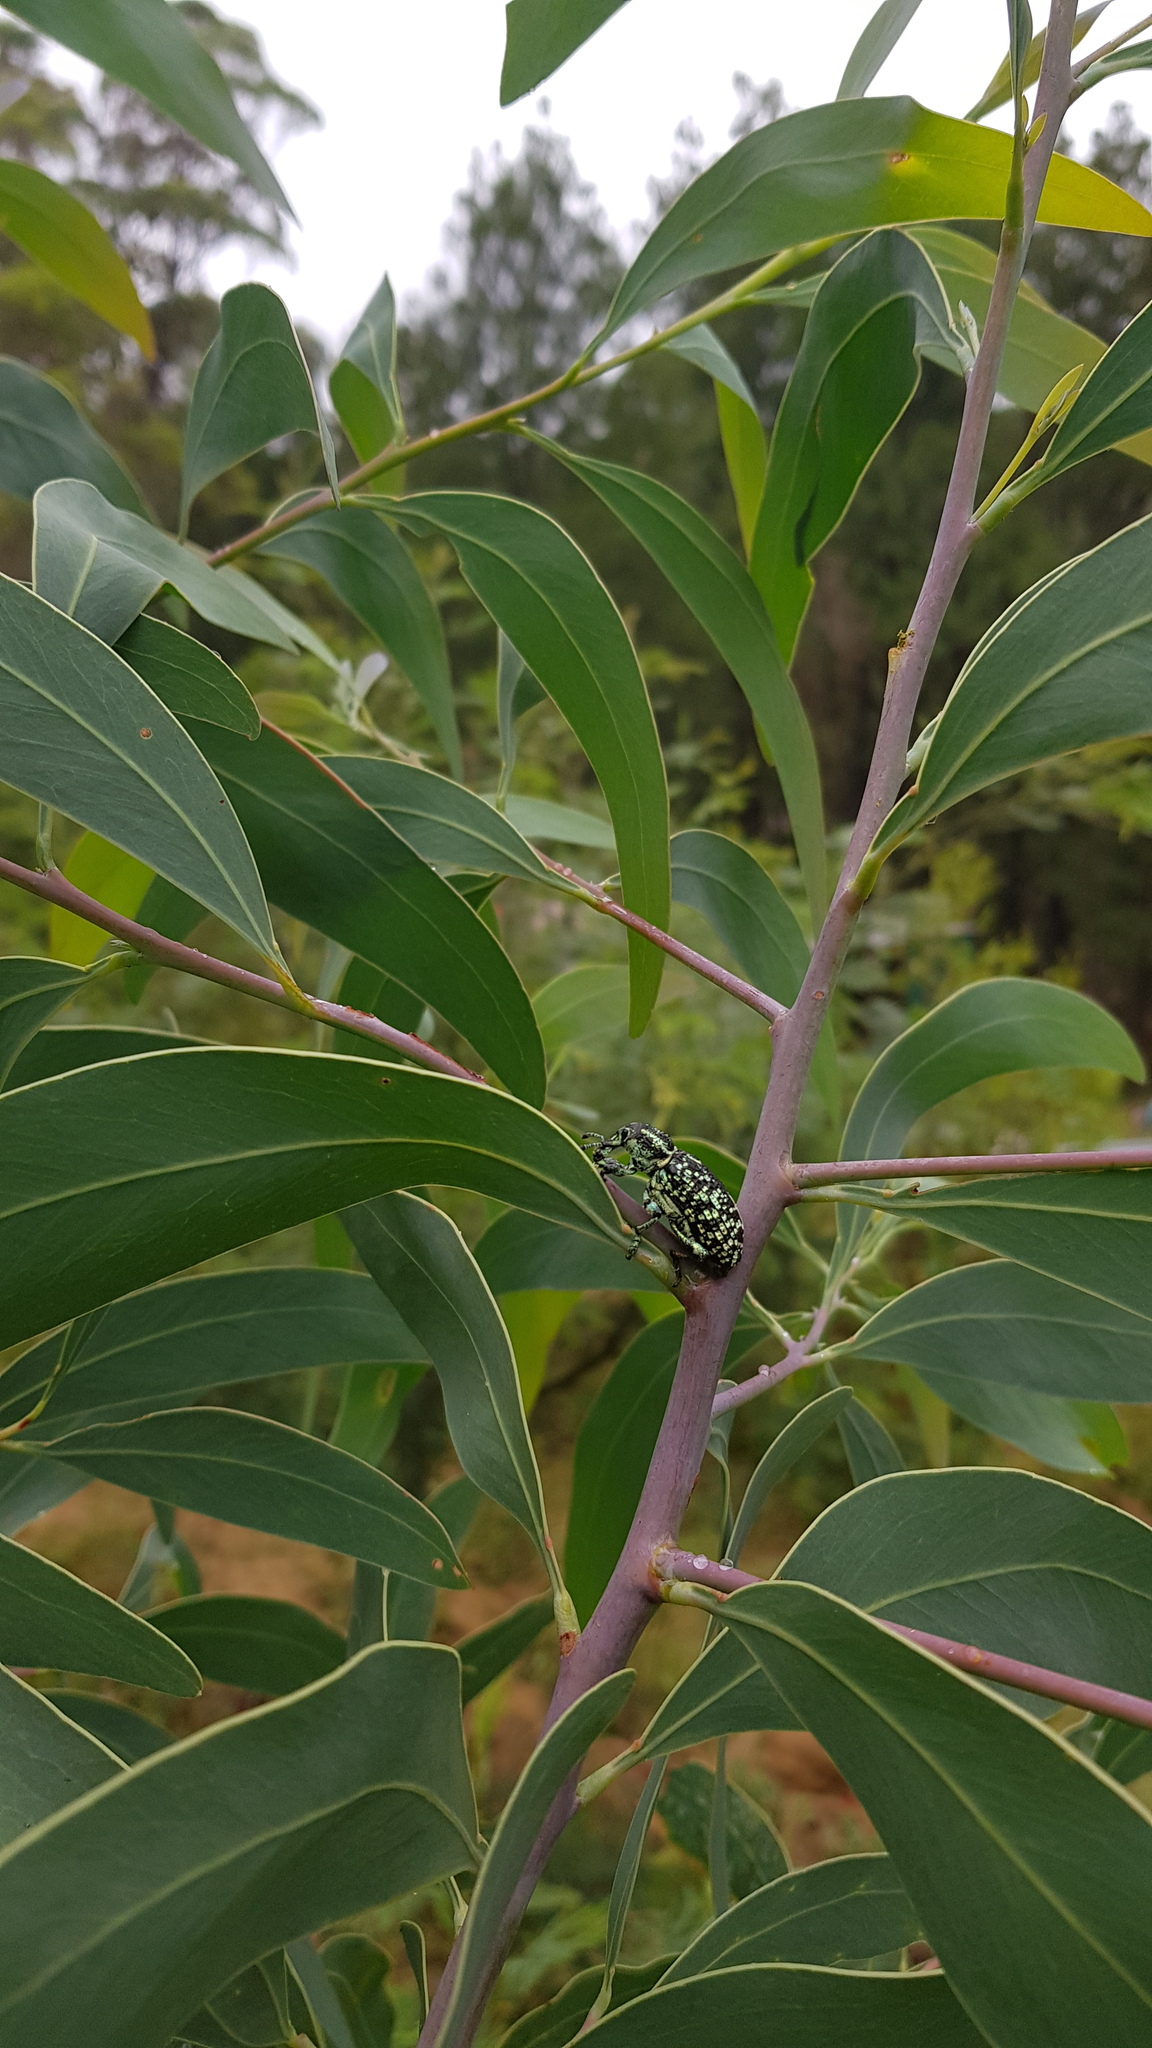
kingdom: Animalia
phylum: Arthropoda
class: Insecta
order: Coleoptera
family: Curculionidae
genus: Chrysolopus
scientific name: Chrysolopus spectabilis
